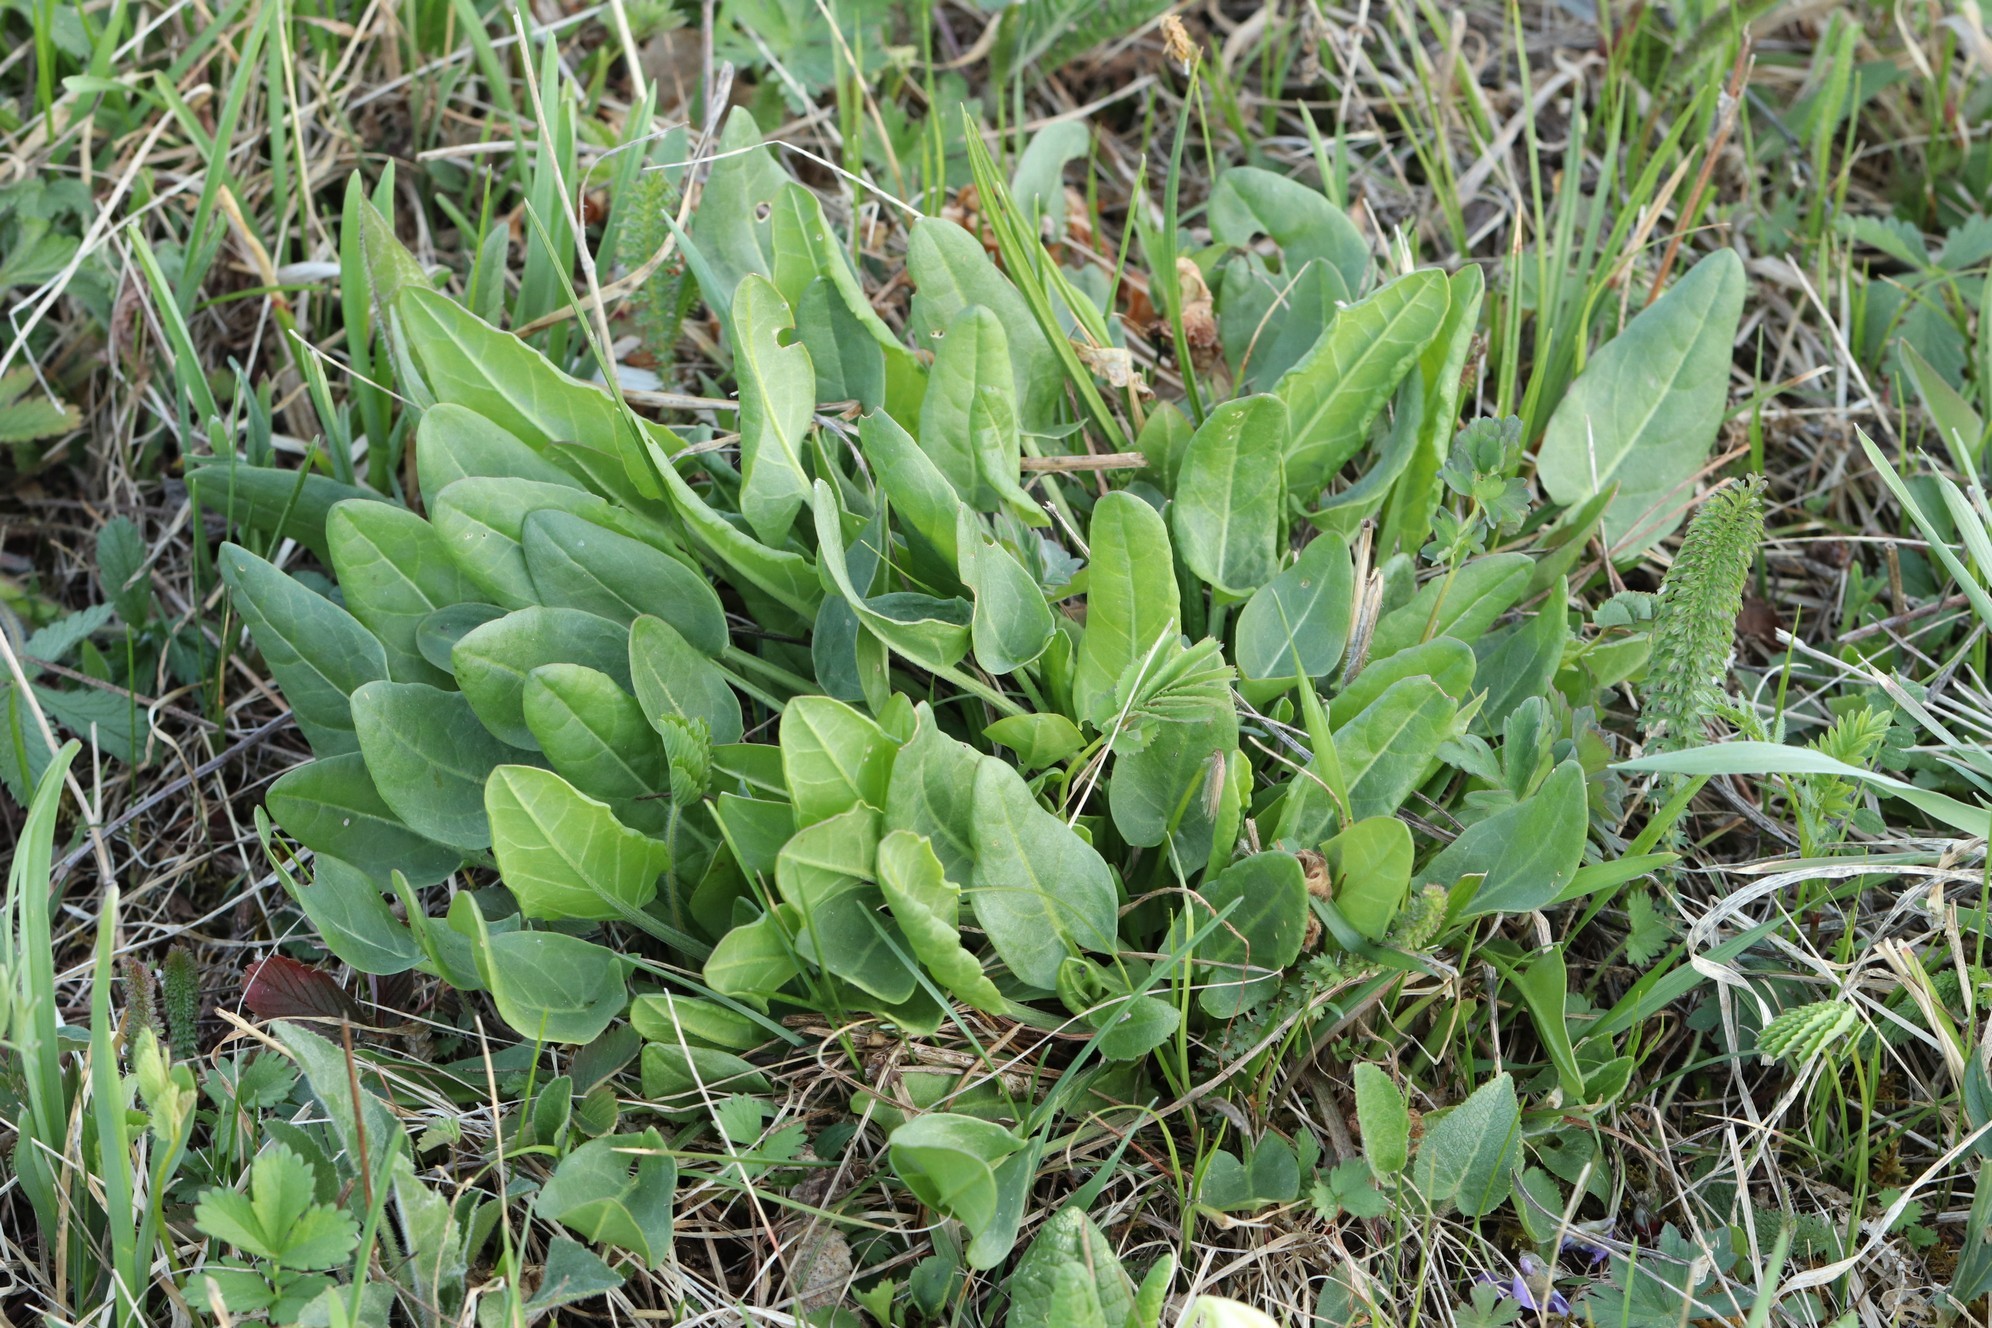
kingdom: Plantae
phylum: Tracheophyta
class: Magnoliopsida
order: Caryophyllales
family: Polygonaceae
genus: Rumex
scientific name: Rumex acetosa
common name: Garden sorrel
